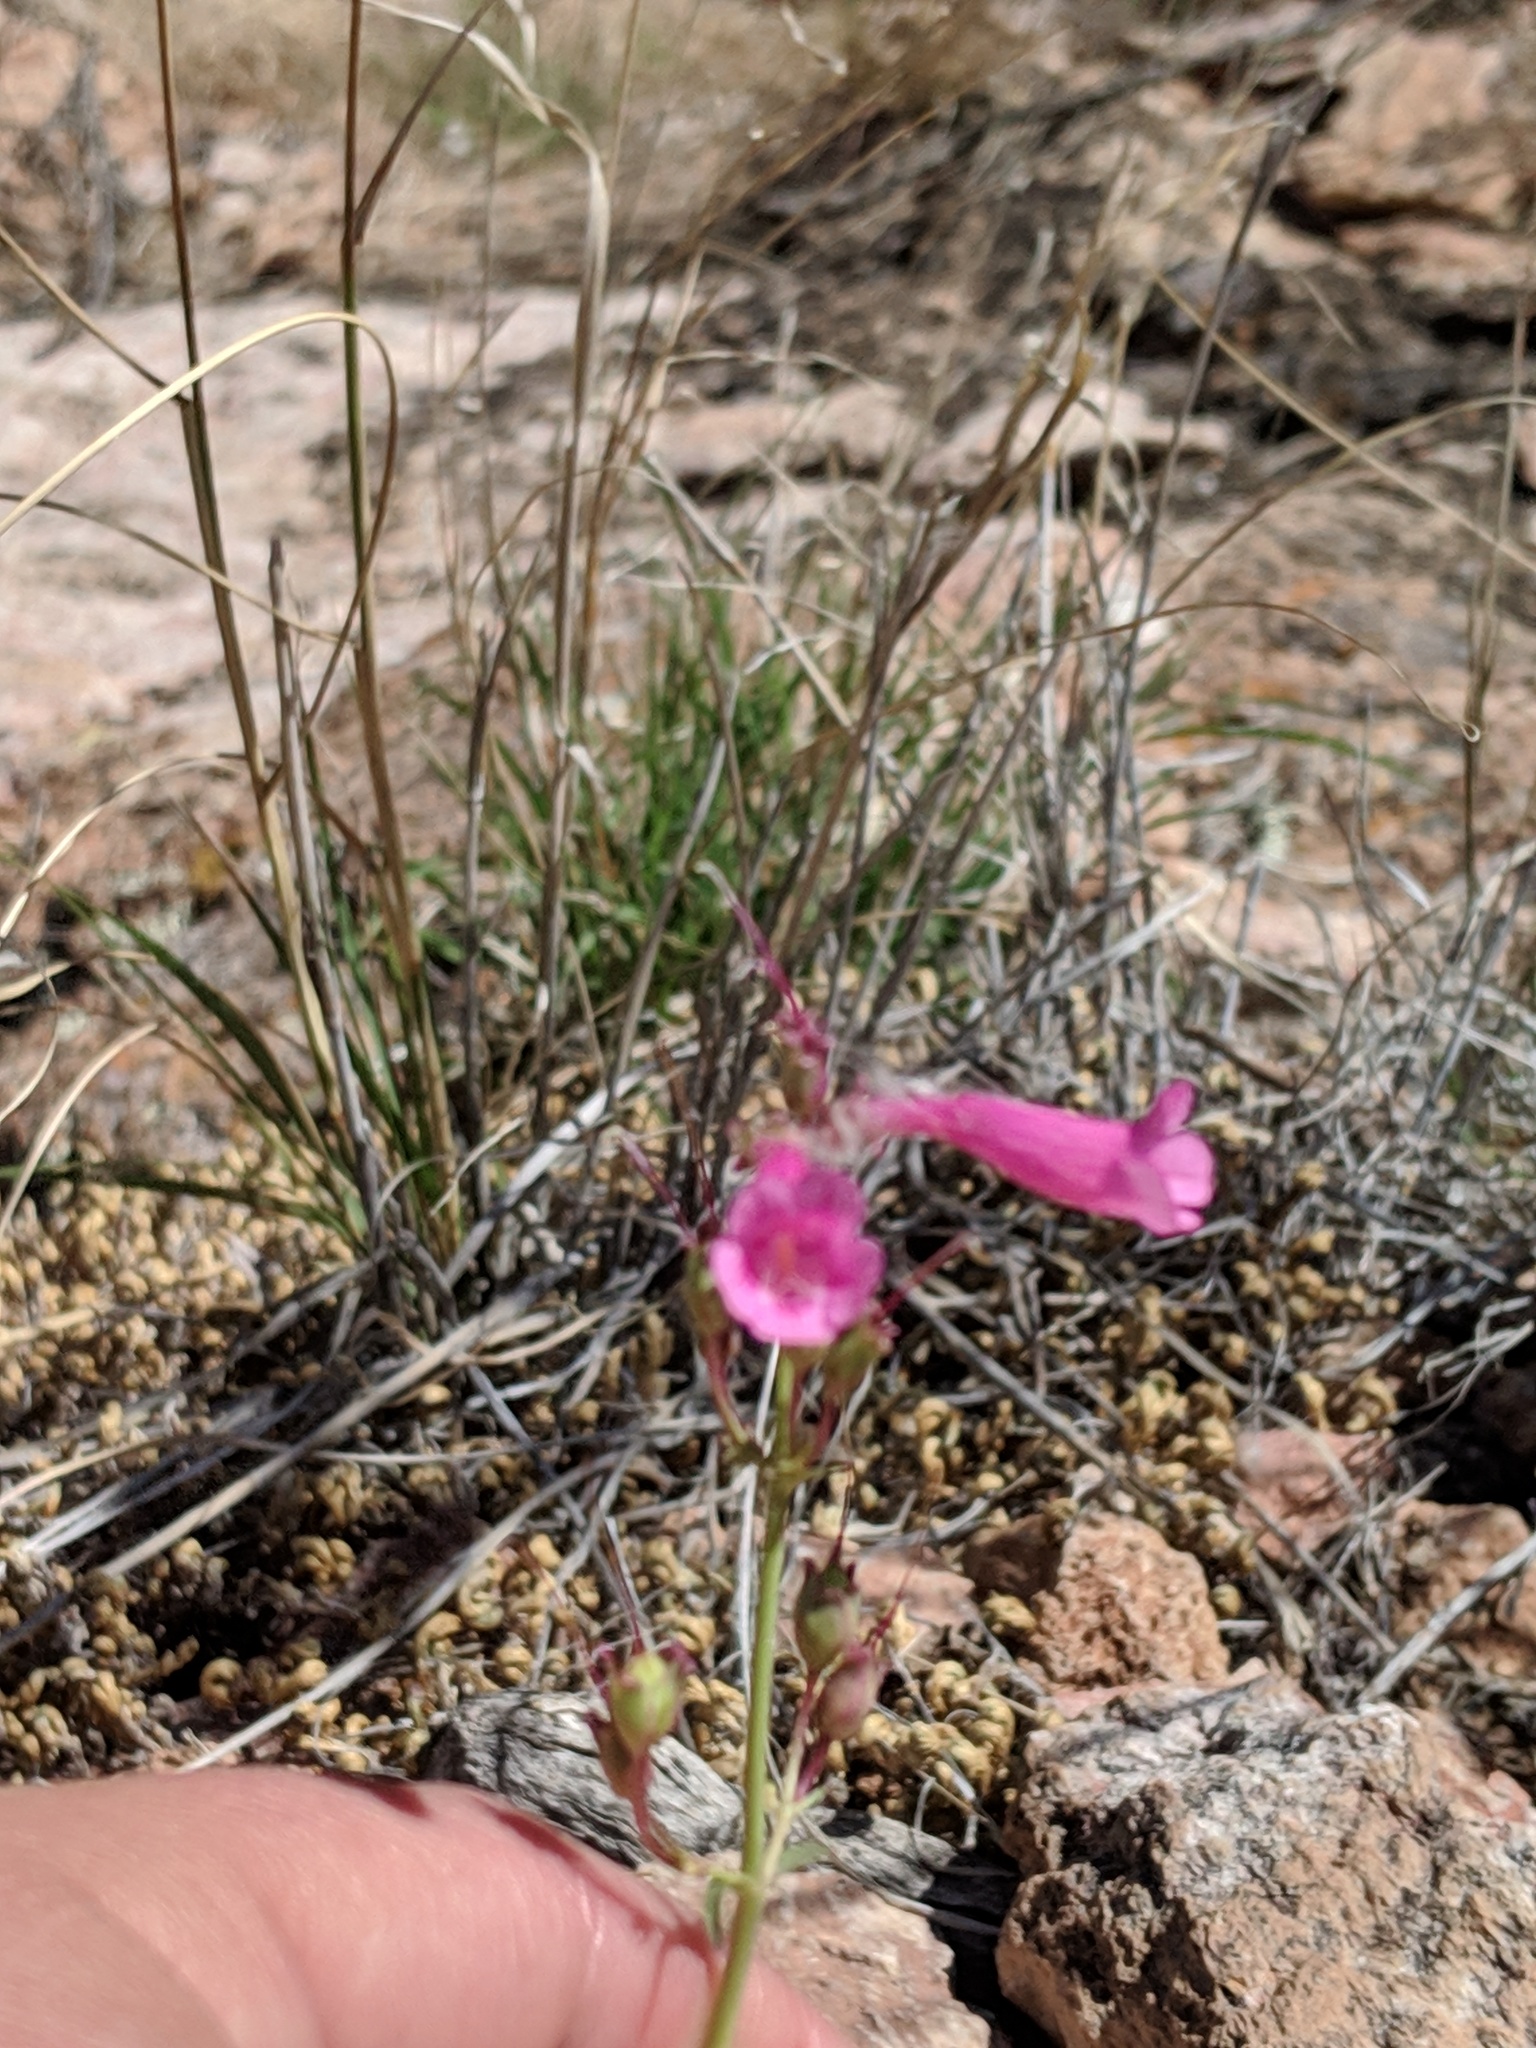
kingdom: Plantae
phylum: Tracheophyta
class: Magnoliopsida
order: Lamiales
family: Plantaginaceae
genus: Penstemon
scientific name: Penstemon parryi
